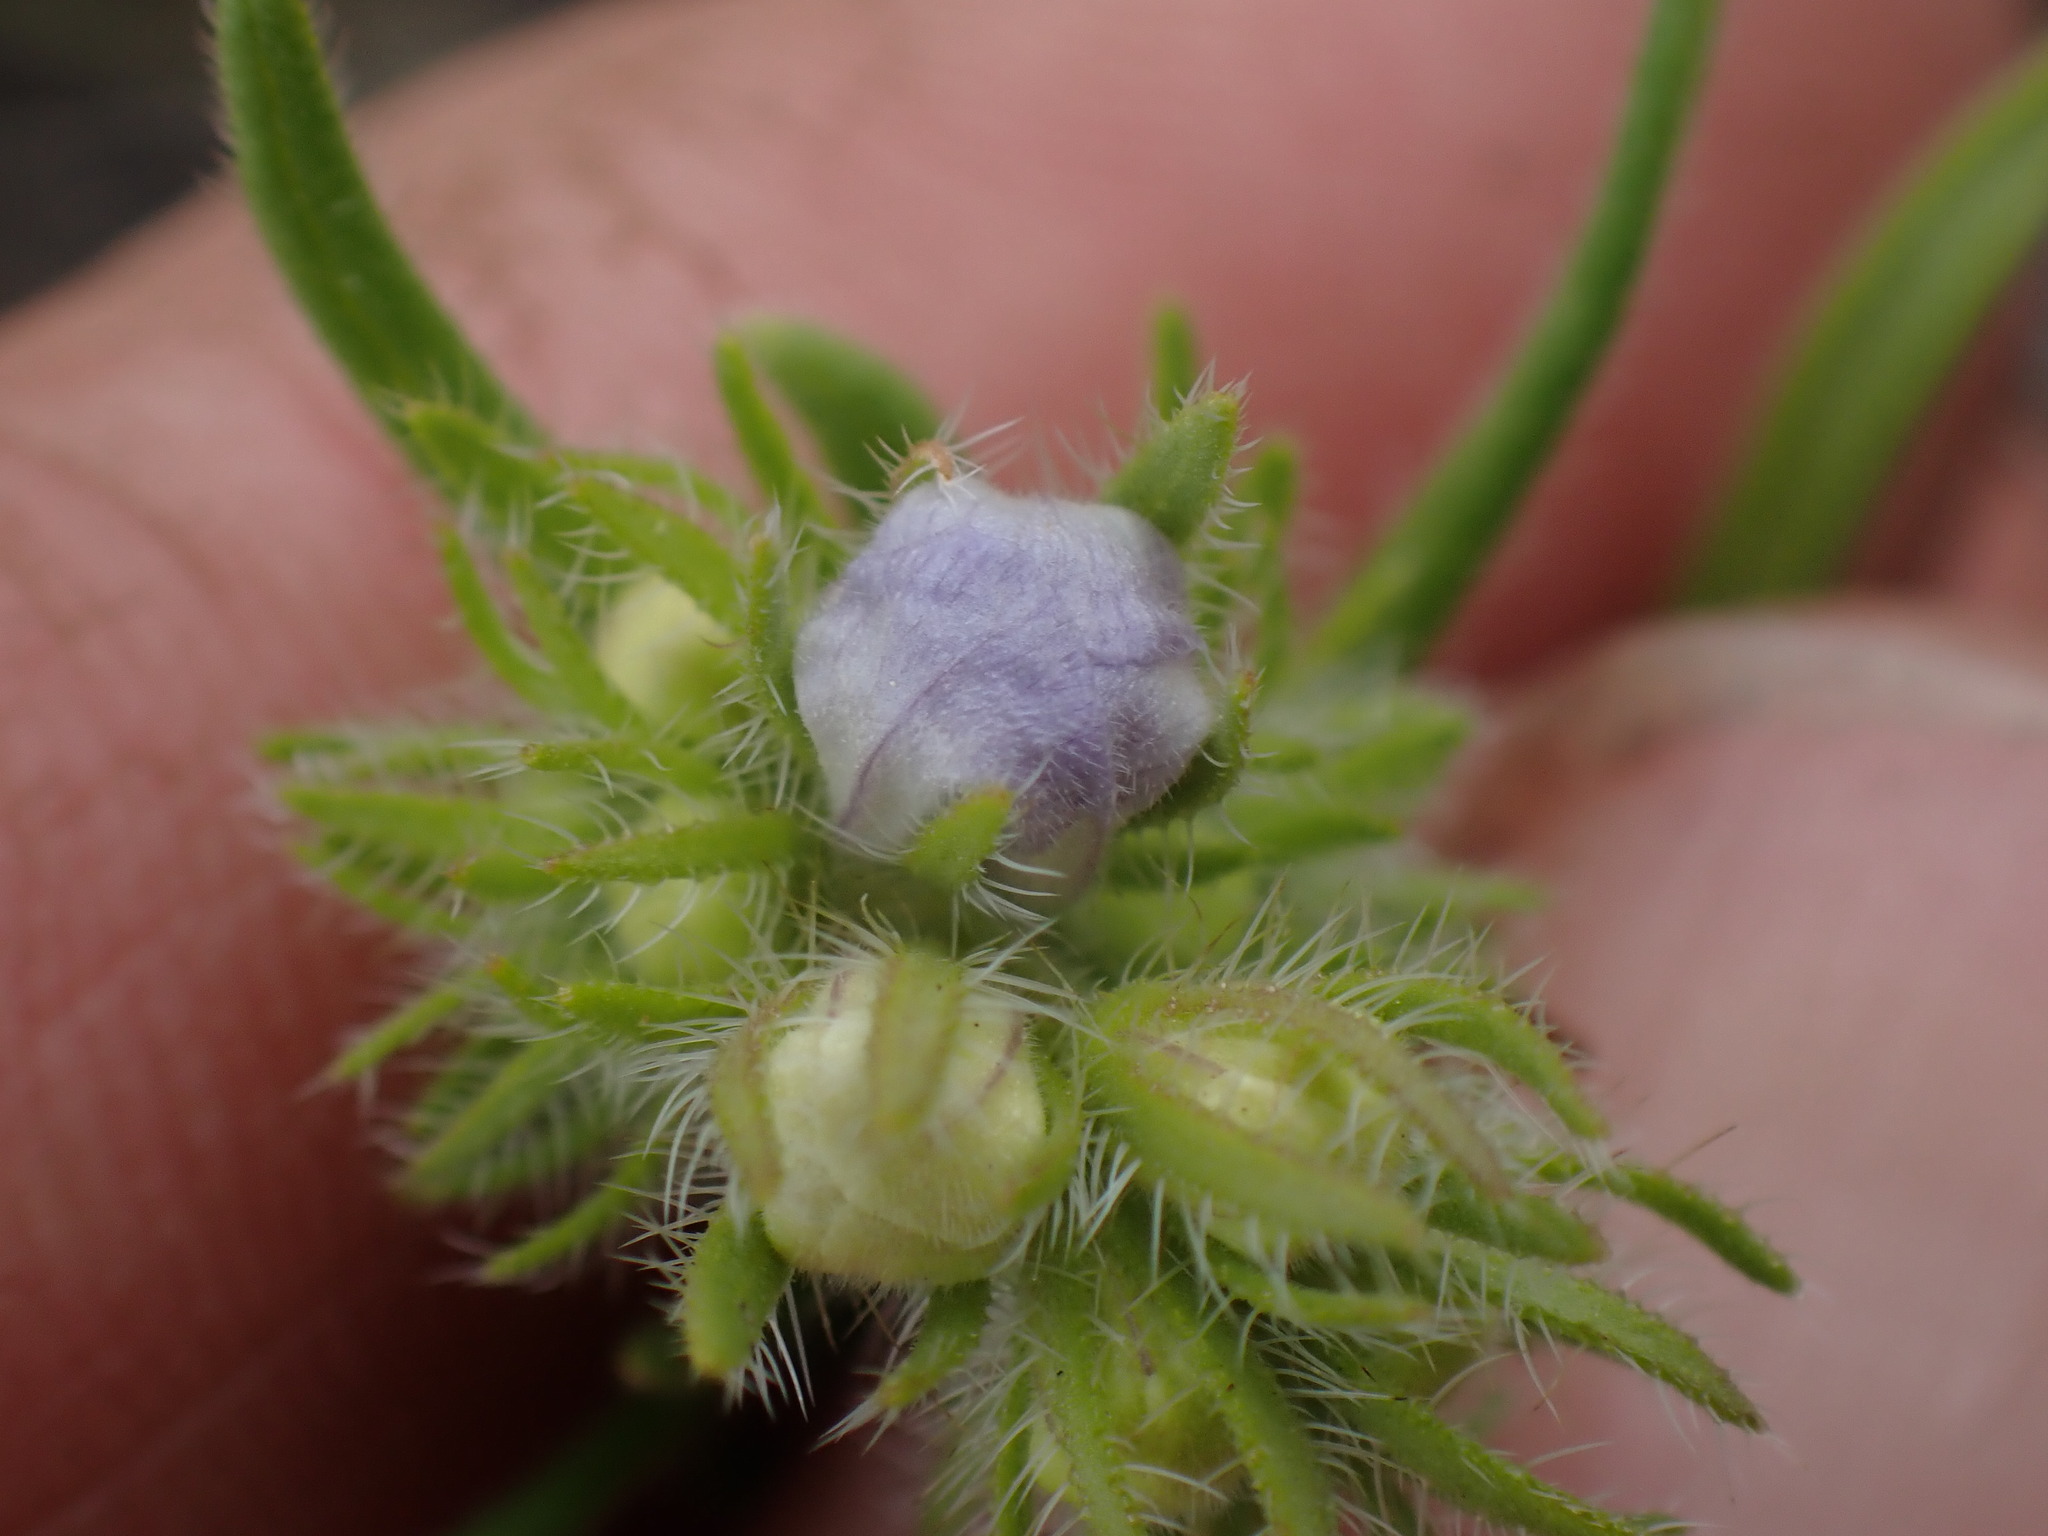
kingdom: Plantae
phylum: Tracheophyta
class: Magnoliopsida
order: Boraginales
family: Hydrophyllaceae
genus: Phacelia
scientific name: Phacelia linearis
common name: Linear-leaved phacelia
